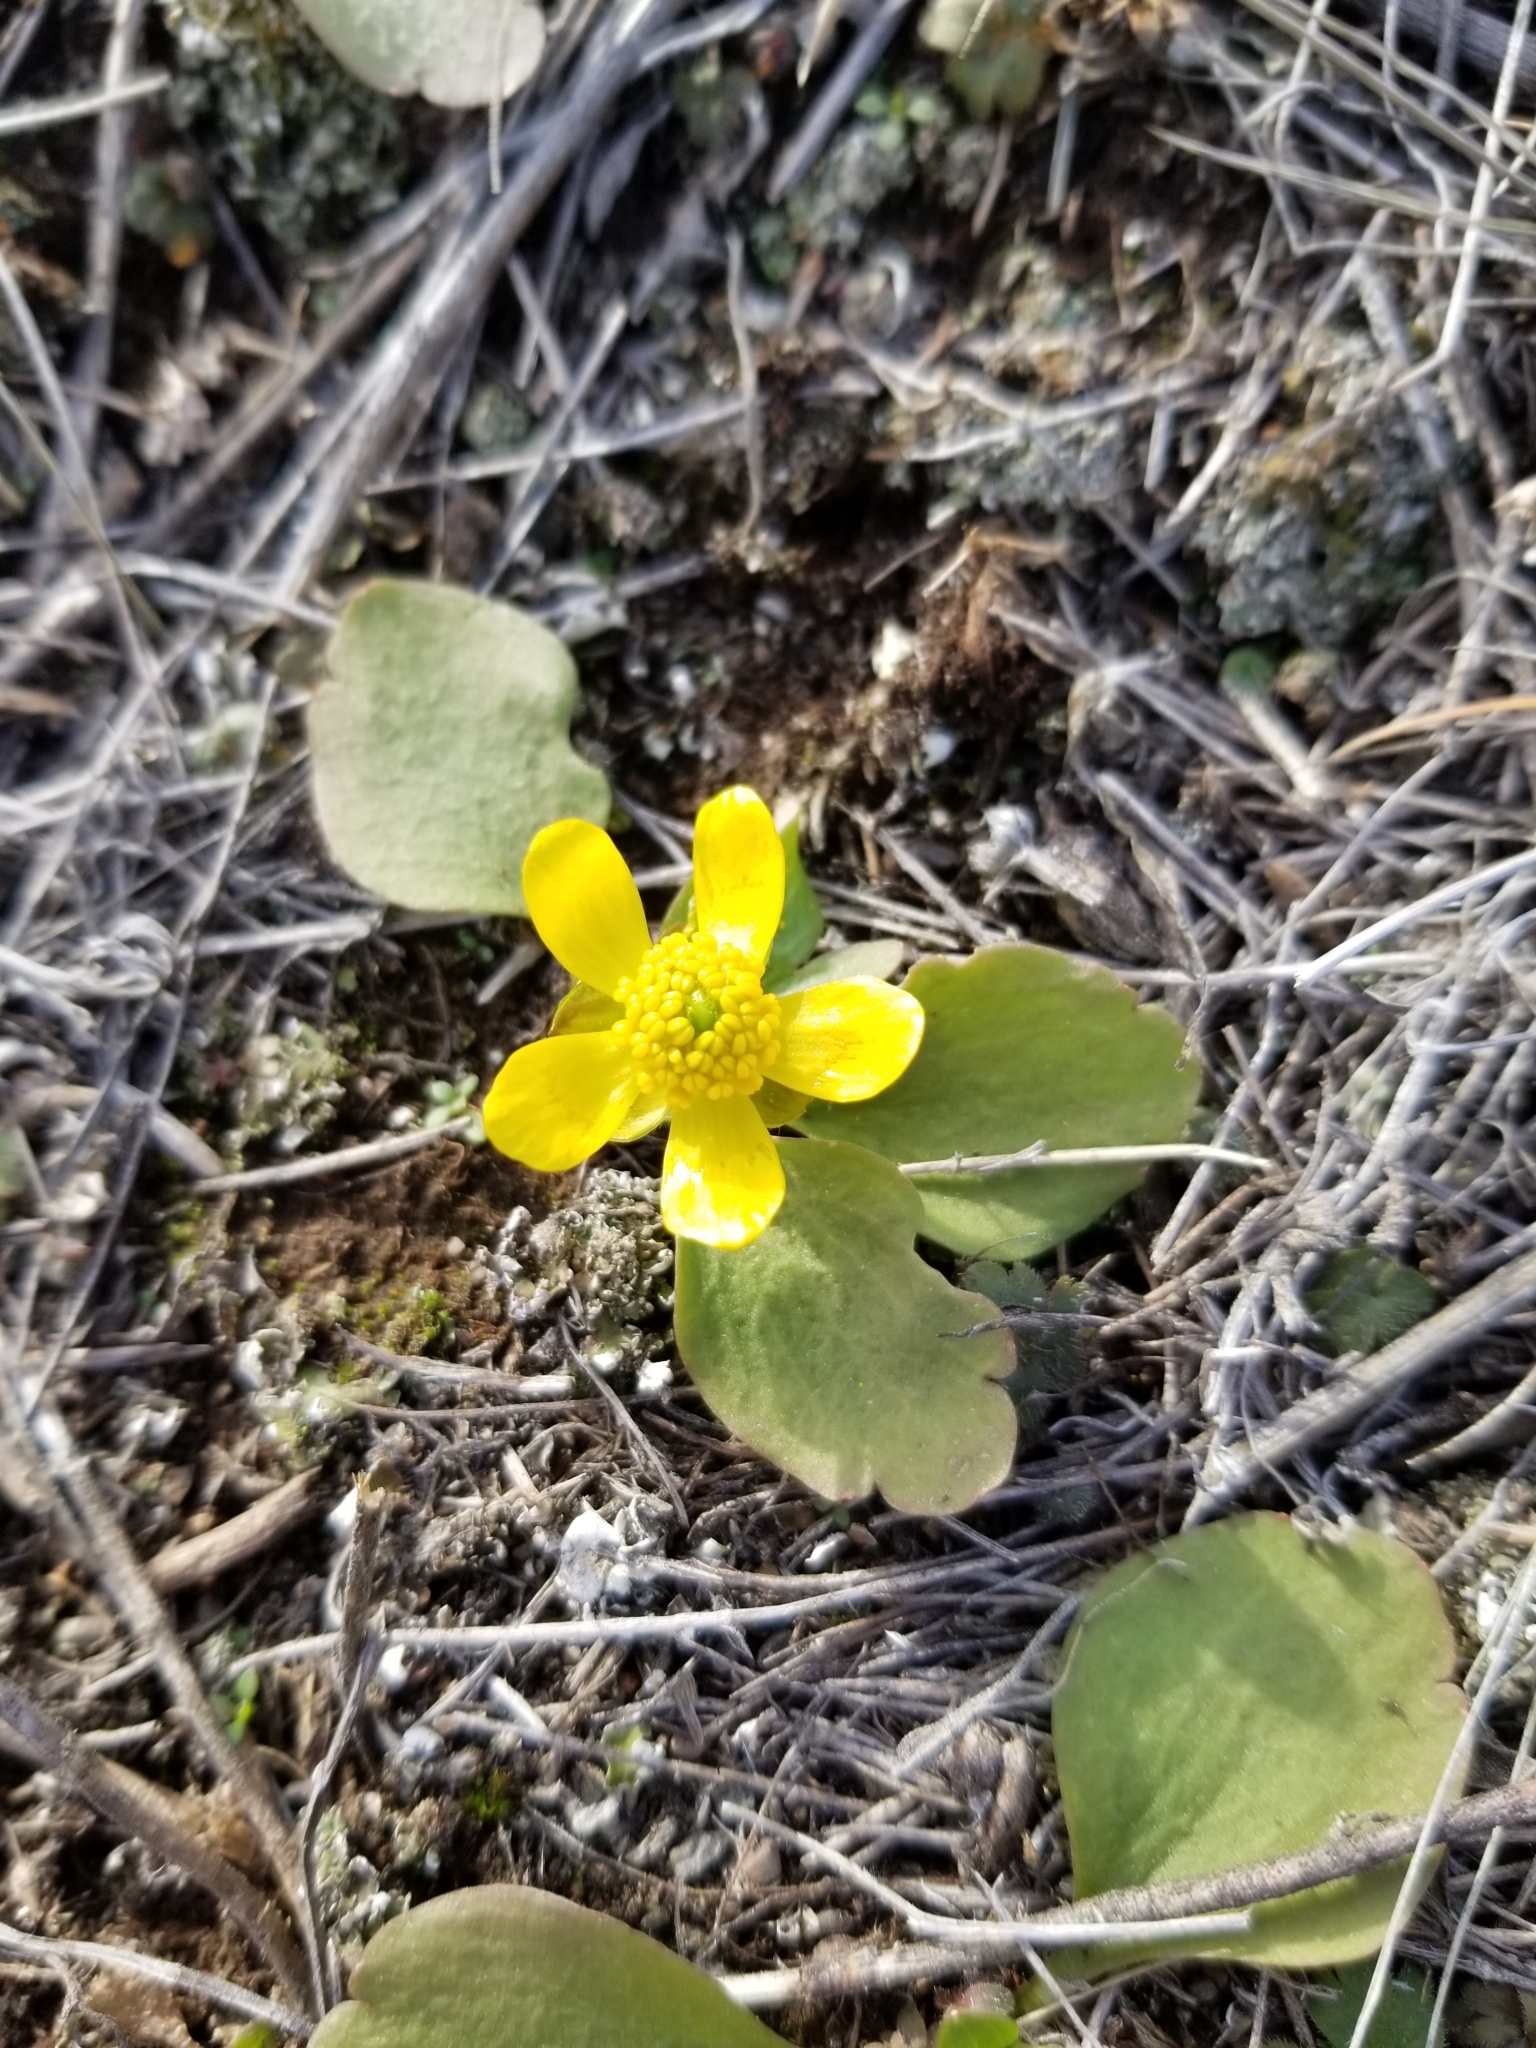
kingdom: Plantae
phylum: Tracheophyta
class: Magnoliopsida
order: Ranunculales
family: Ranunculaceae
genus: Ranunculus
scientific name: Ranunculus glaberrimus
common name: Sagebrush buttercup
